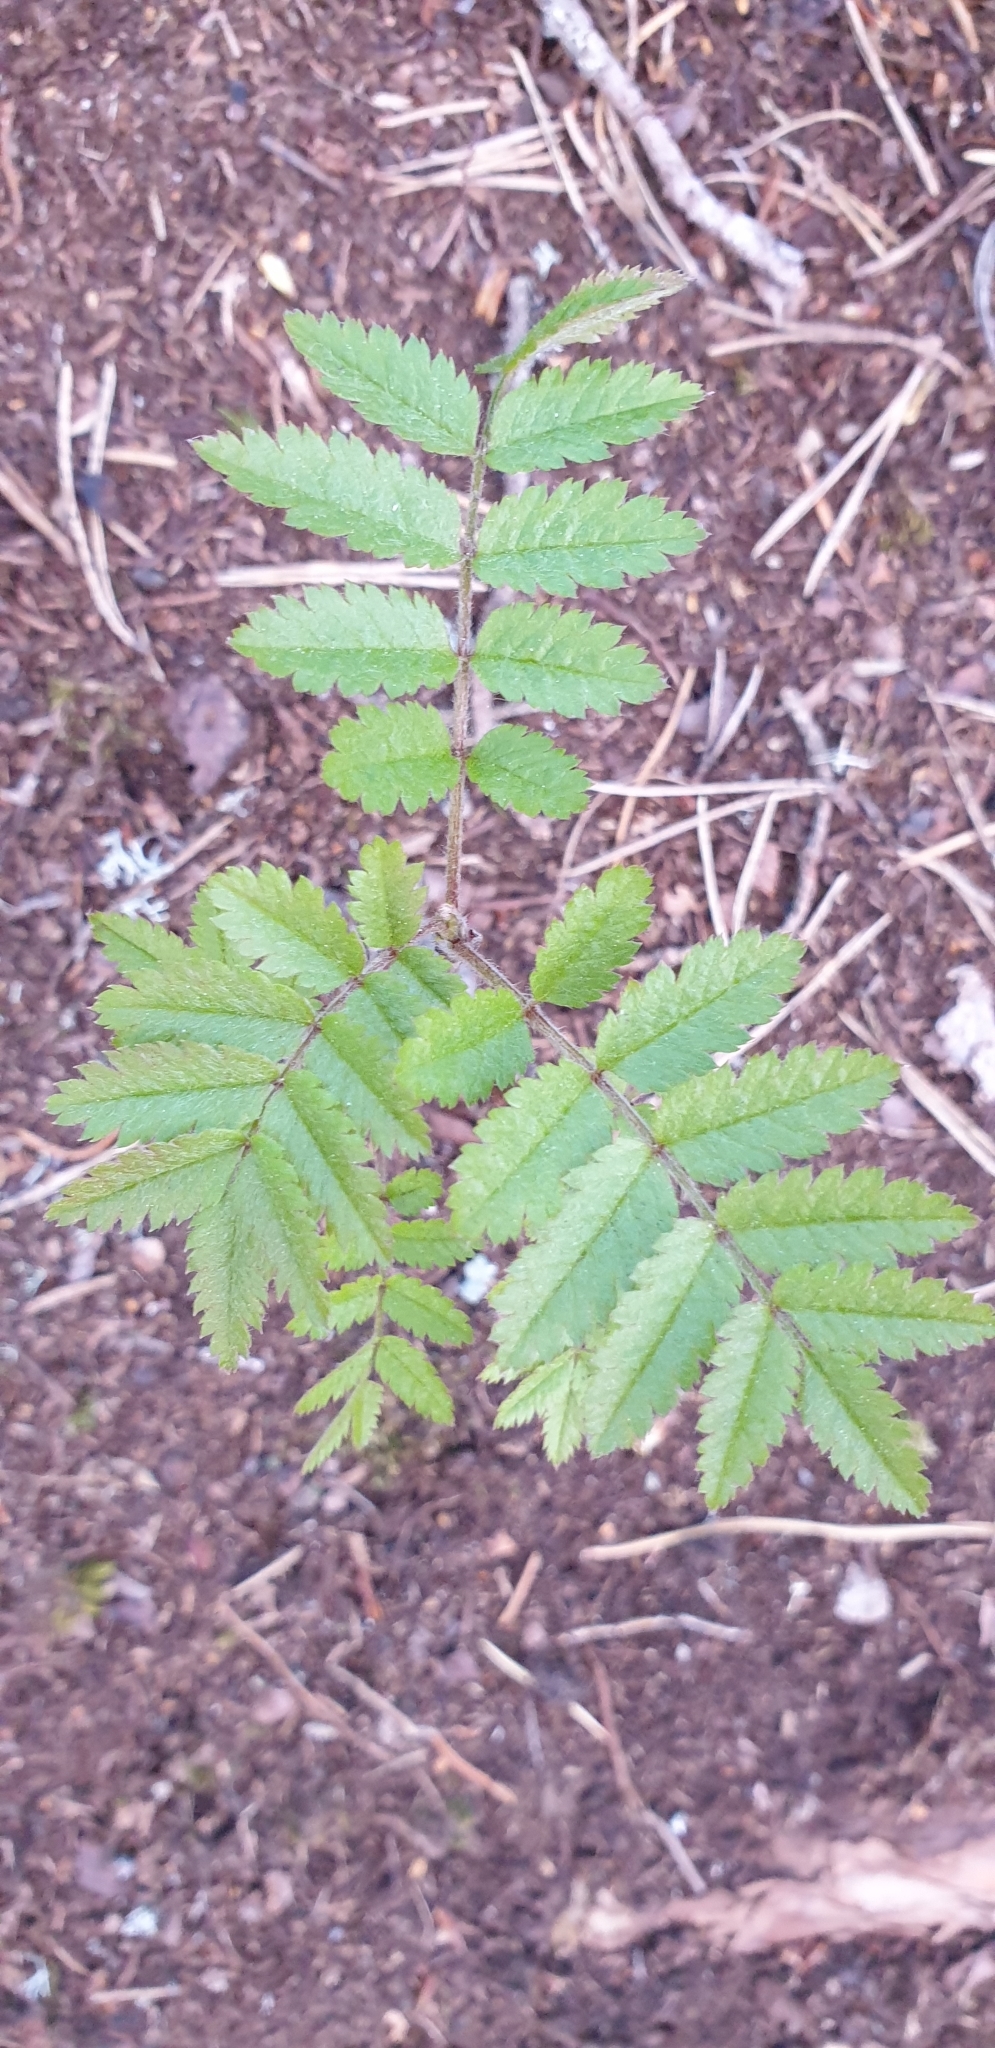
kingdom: Plantae
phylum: Tracheophyta
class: Magnoliopsida
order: Rosales
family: Rosaceae
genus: Sorbus
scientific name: Sorbus aucuparia
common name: Rowan
